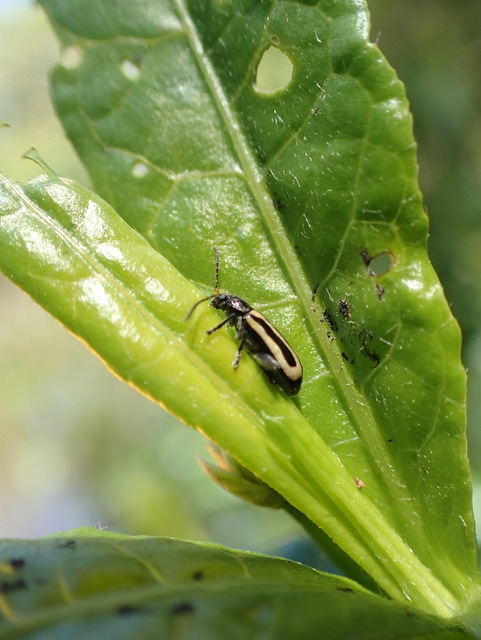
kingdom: Animalia
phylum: Arthropoda
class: Insecta
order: Coleoptera
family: Chrysomelidae
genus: Agasicles
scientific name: Agasicles hygrophila
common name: Alligatorweed flea beetle
